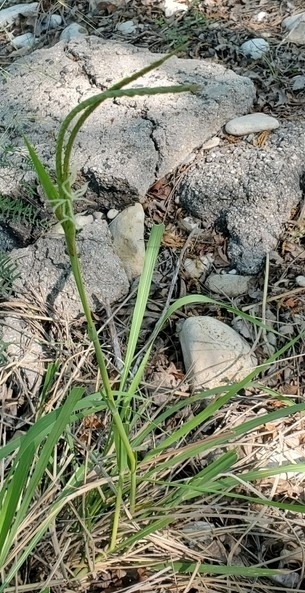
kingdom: Plantae
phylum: Tracheophyta
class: Liliopsida
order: Poales
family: Poaceae
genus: Tripsacum
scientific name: Tripsacum dactyloides
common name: Buffalo-grass
